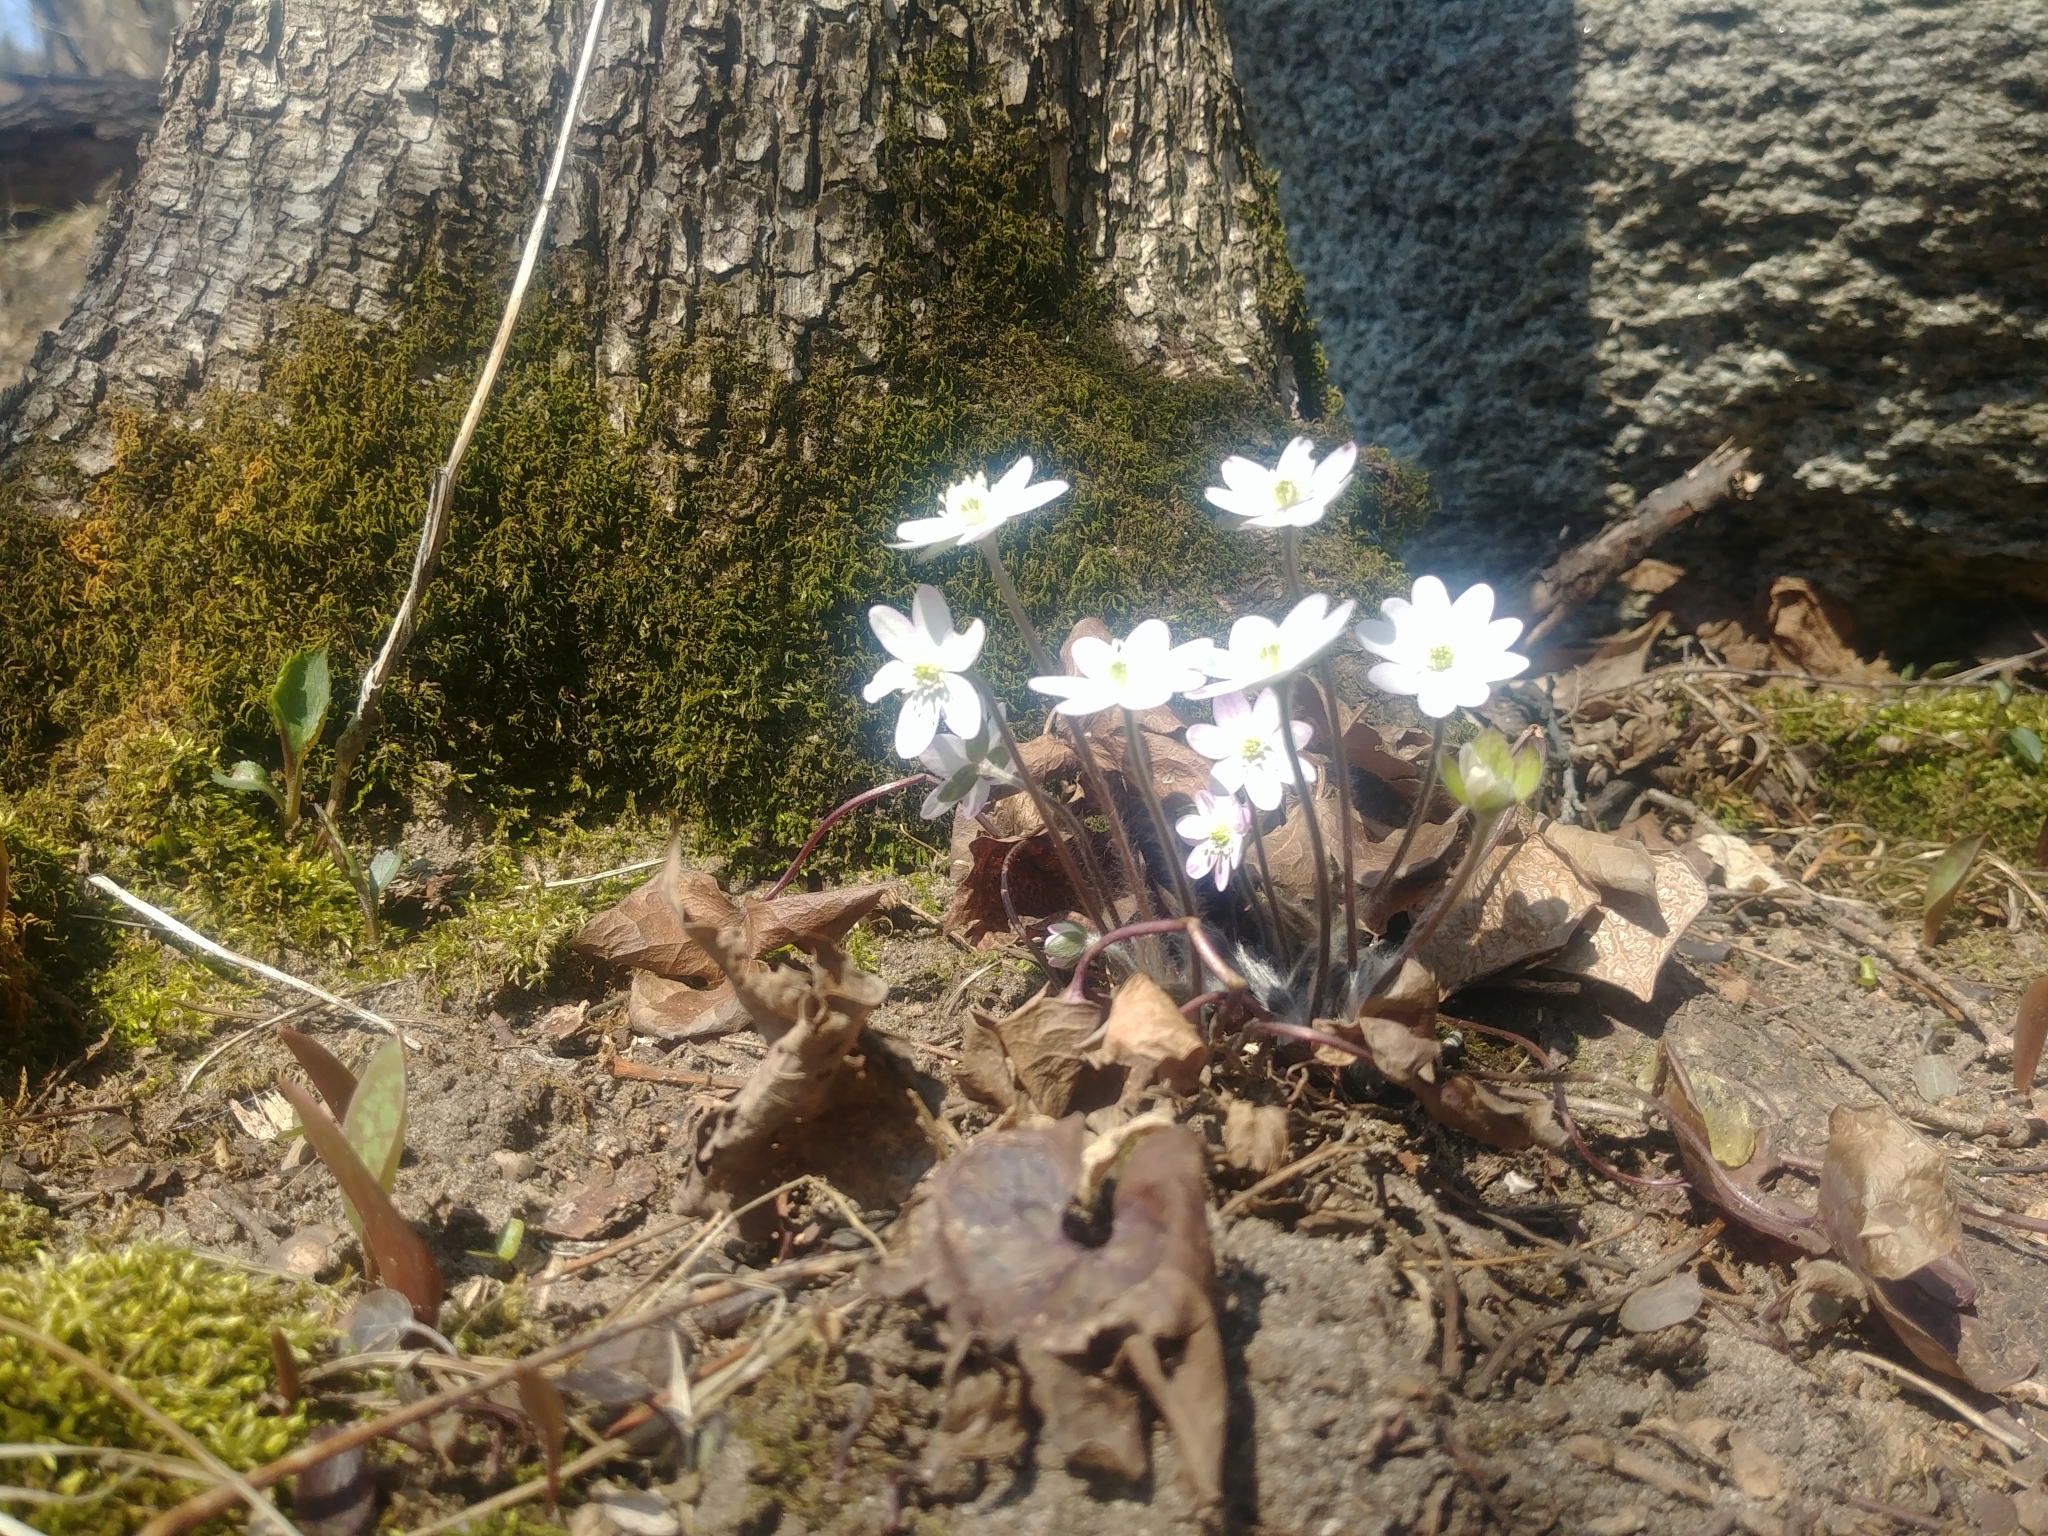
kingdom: Plantae
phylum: Tracheophyta
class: Magnoliopsida
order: Ranunculales
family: Ranunculaceae
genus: Hepatica
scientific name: Hepatica acutiloba
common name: Sharp-lobed hepatica
